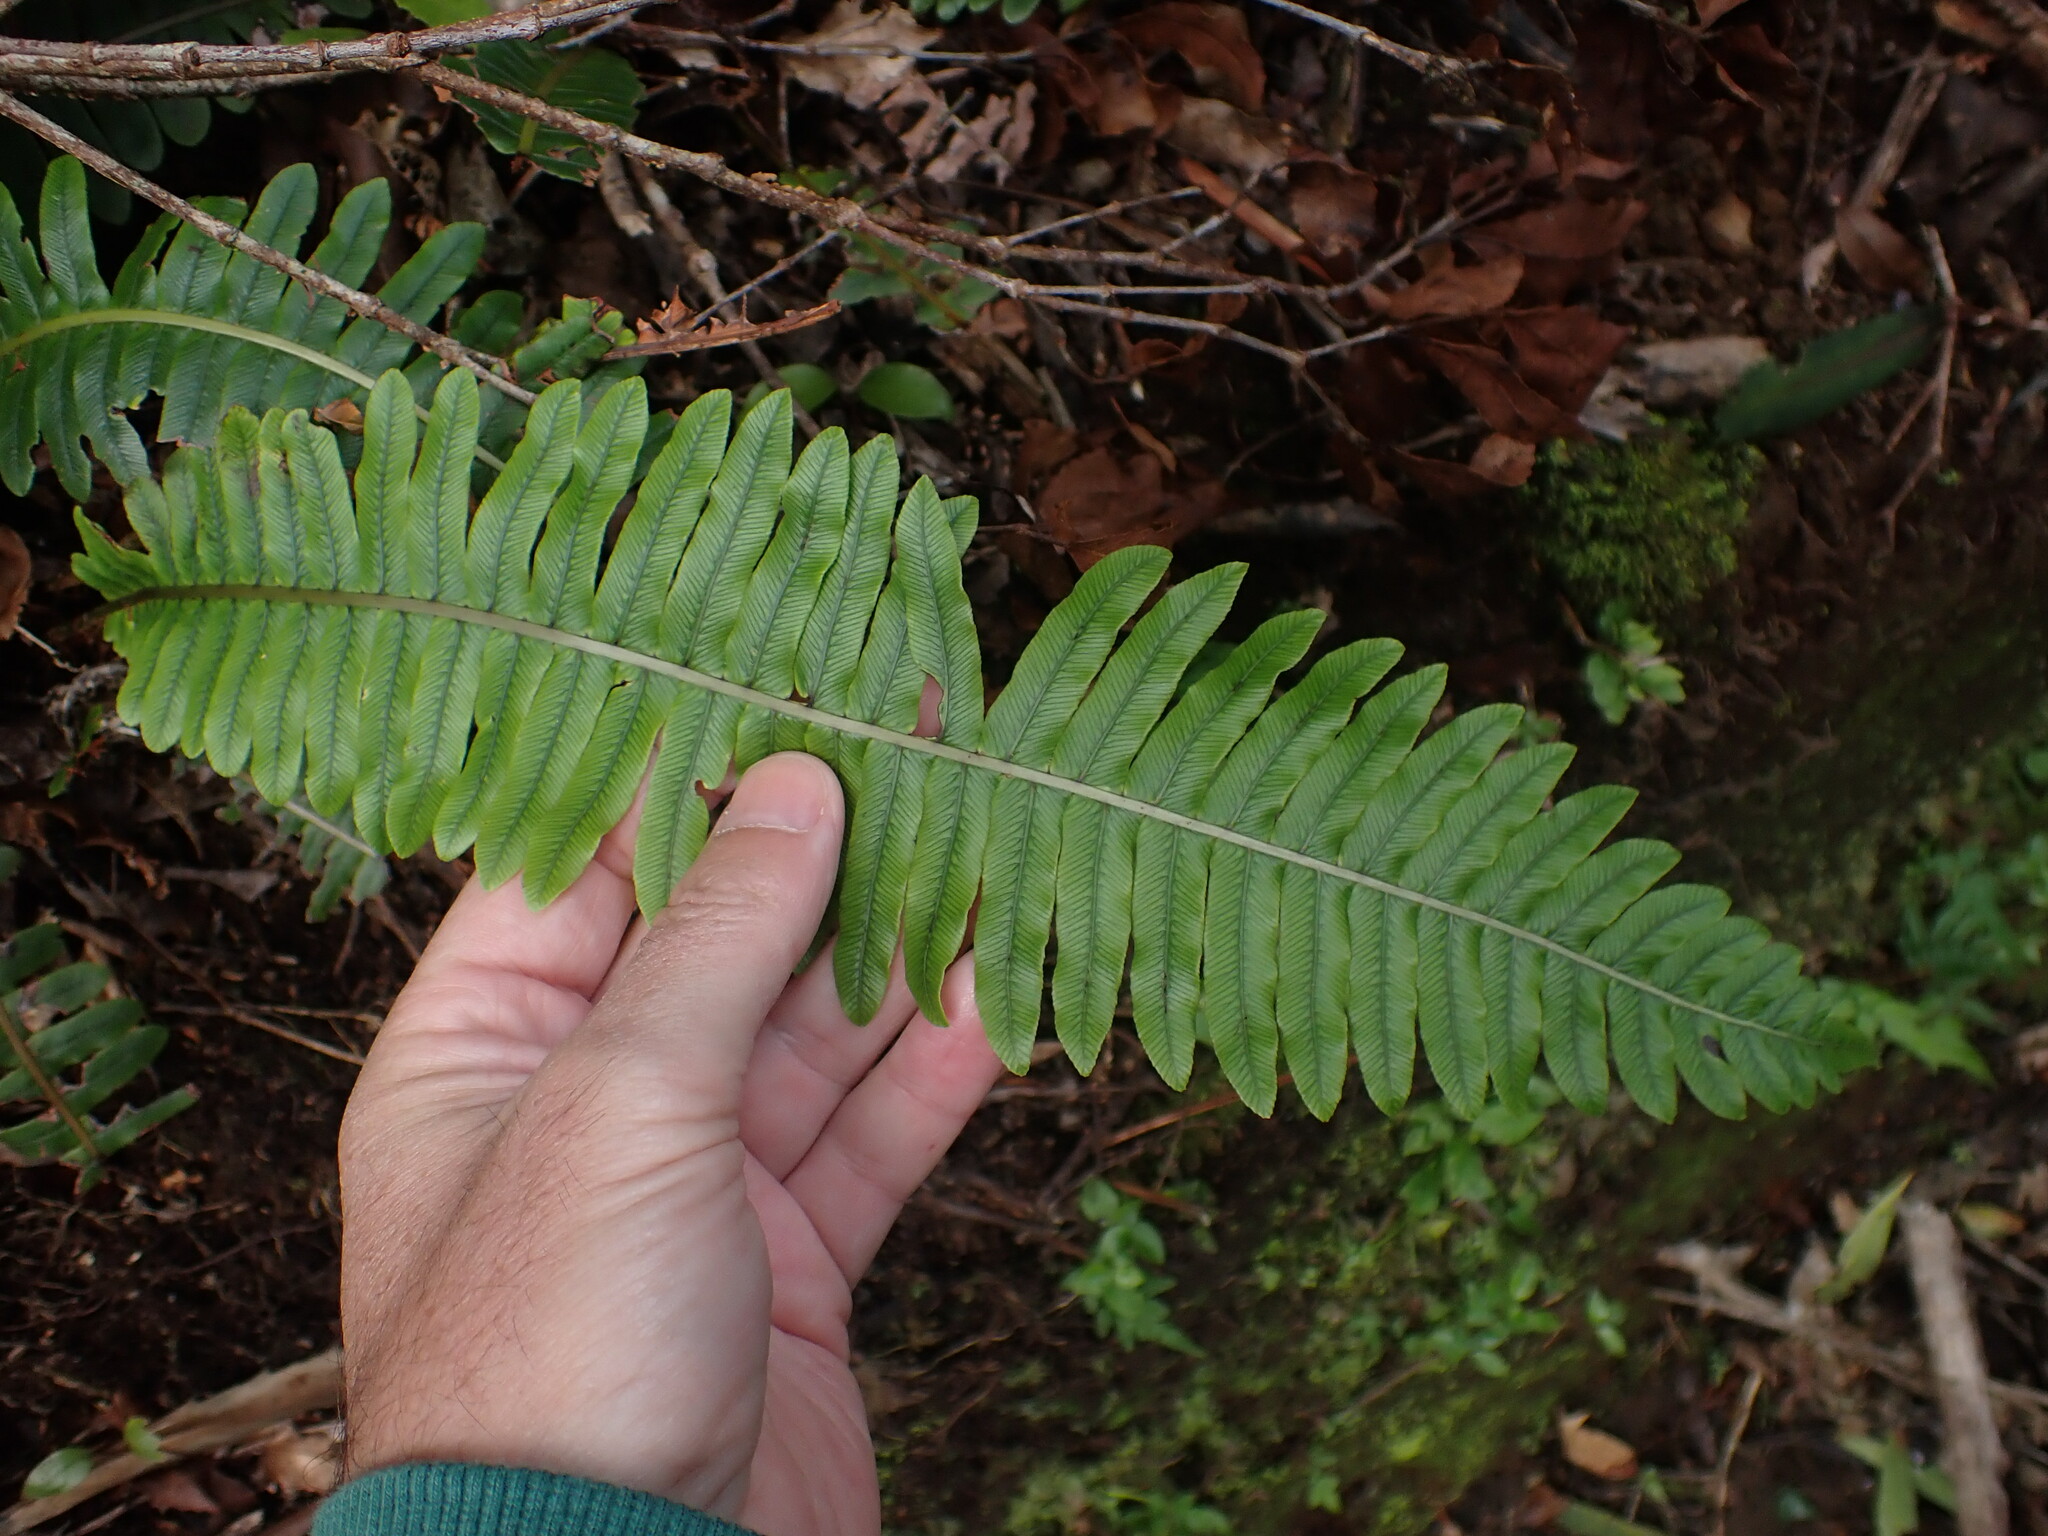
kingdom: Plantae
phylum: Tracheophyta
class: Polypodiopsida
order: Polypodiales
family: Blechnaceae
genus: Lomaria
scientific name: Lomaria discolor
